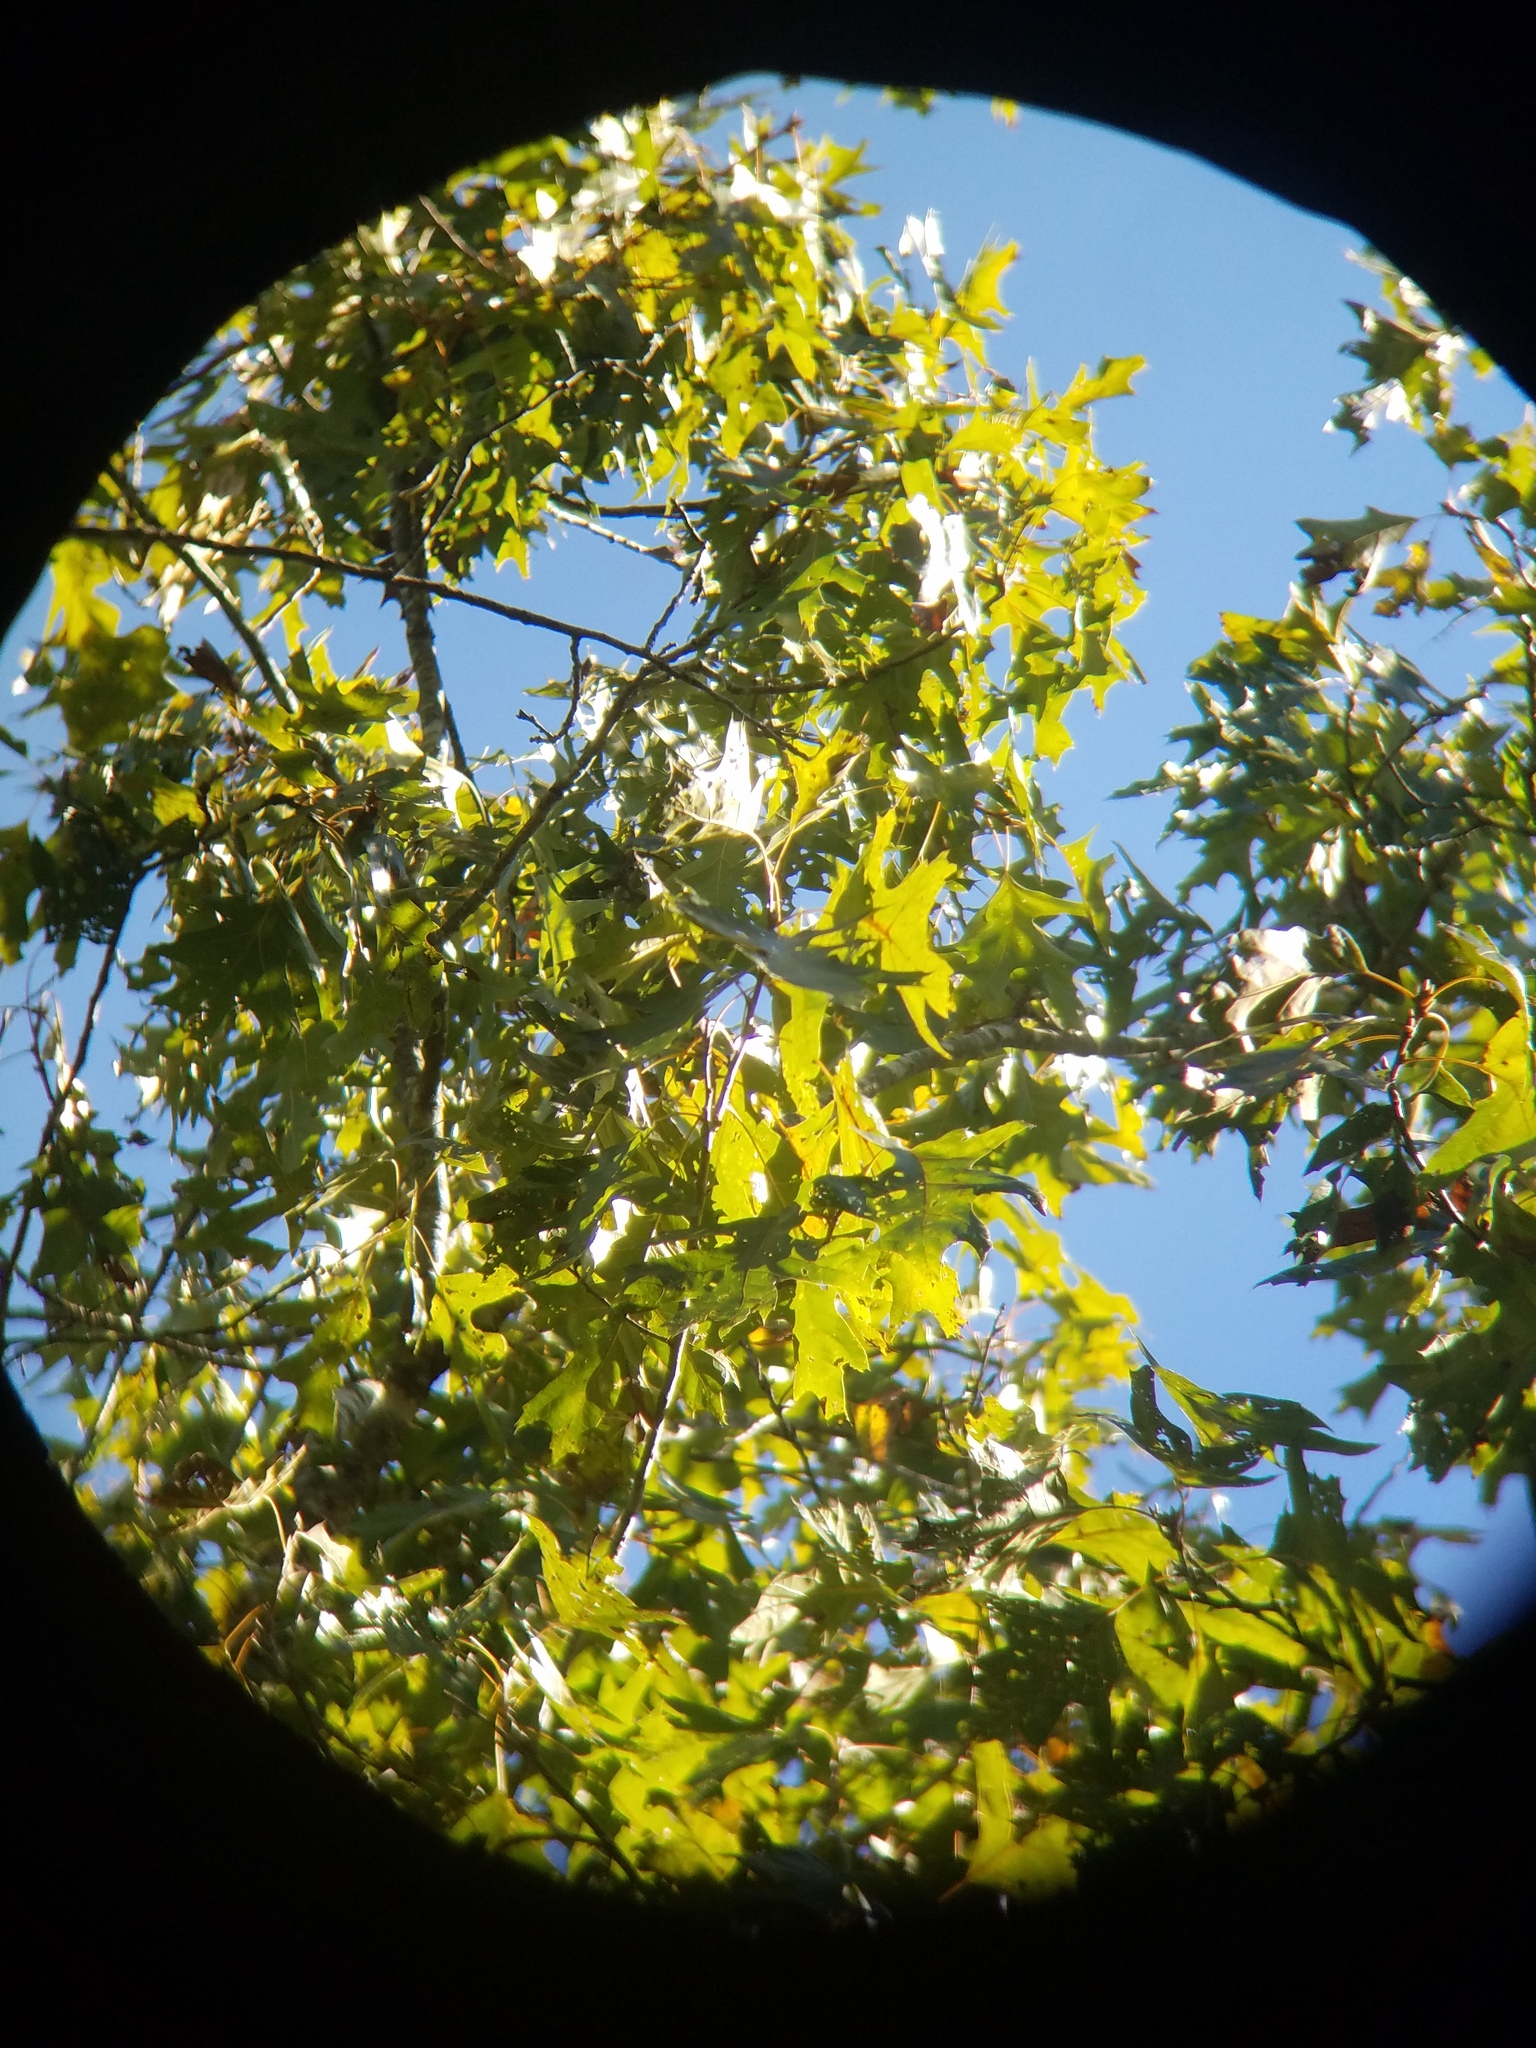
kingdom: Plantae
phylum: Tracheophyta
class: Magnoliopsida
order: Fagales
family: Fagaceae
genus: Quercus
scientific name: Quercus velutina
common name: Black oak
